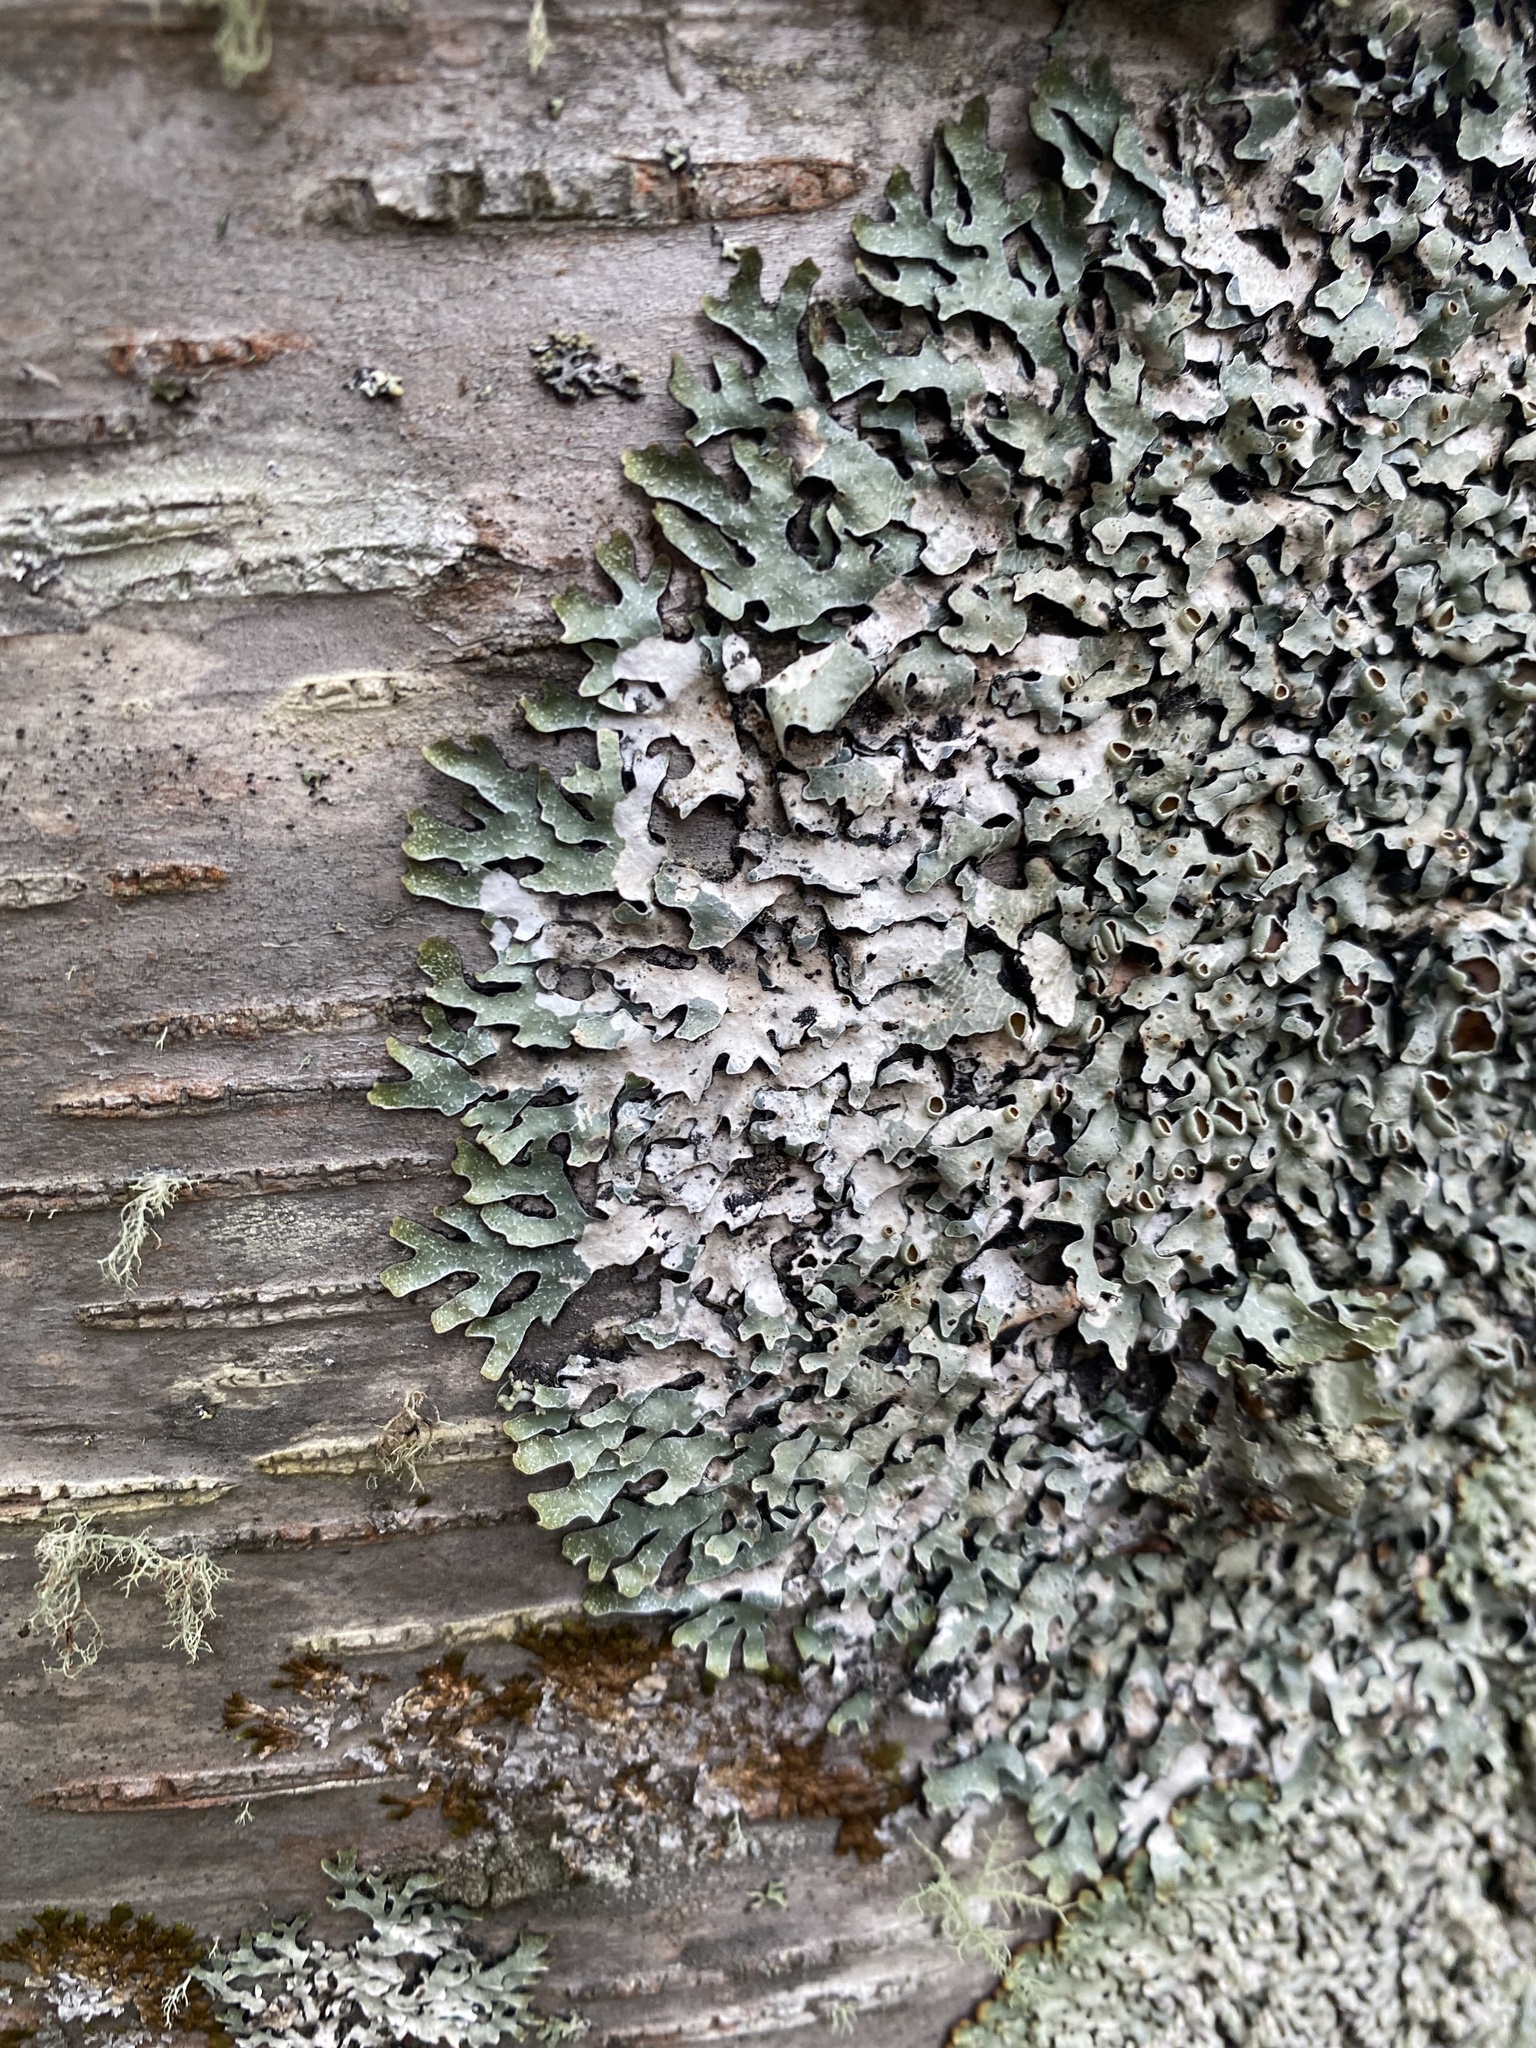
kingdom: Fungi
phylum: Ascomycota
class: Lecanoromycetes
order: Lecanorales
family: Parmeliaceae
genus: Parmelia
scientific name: Parmelia
